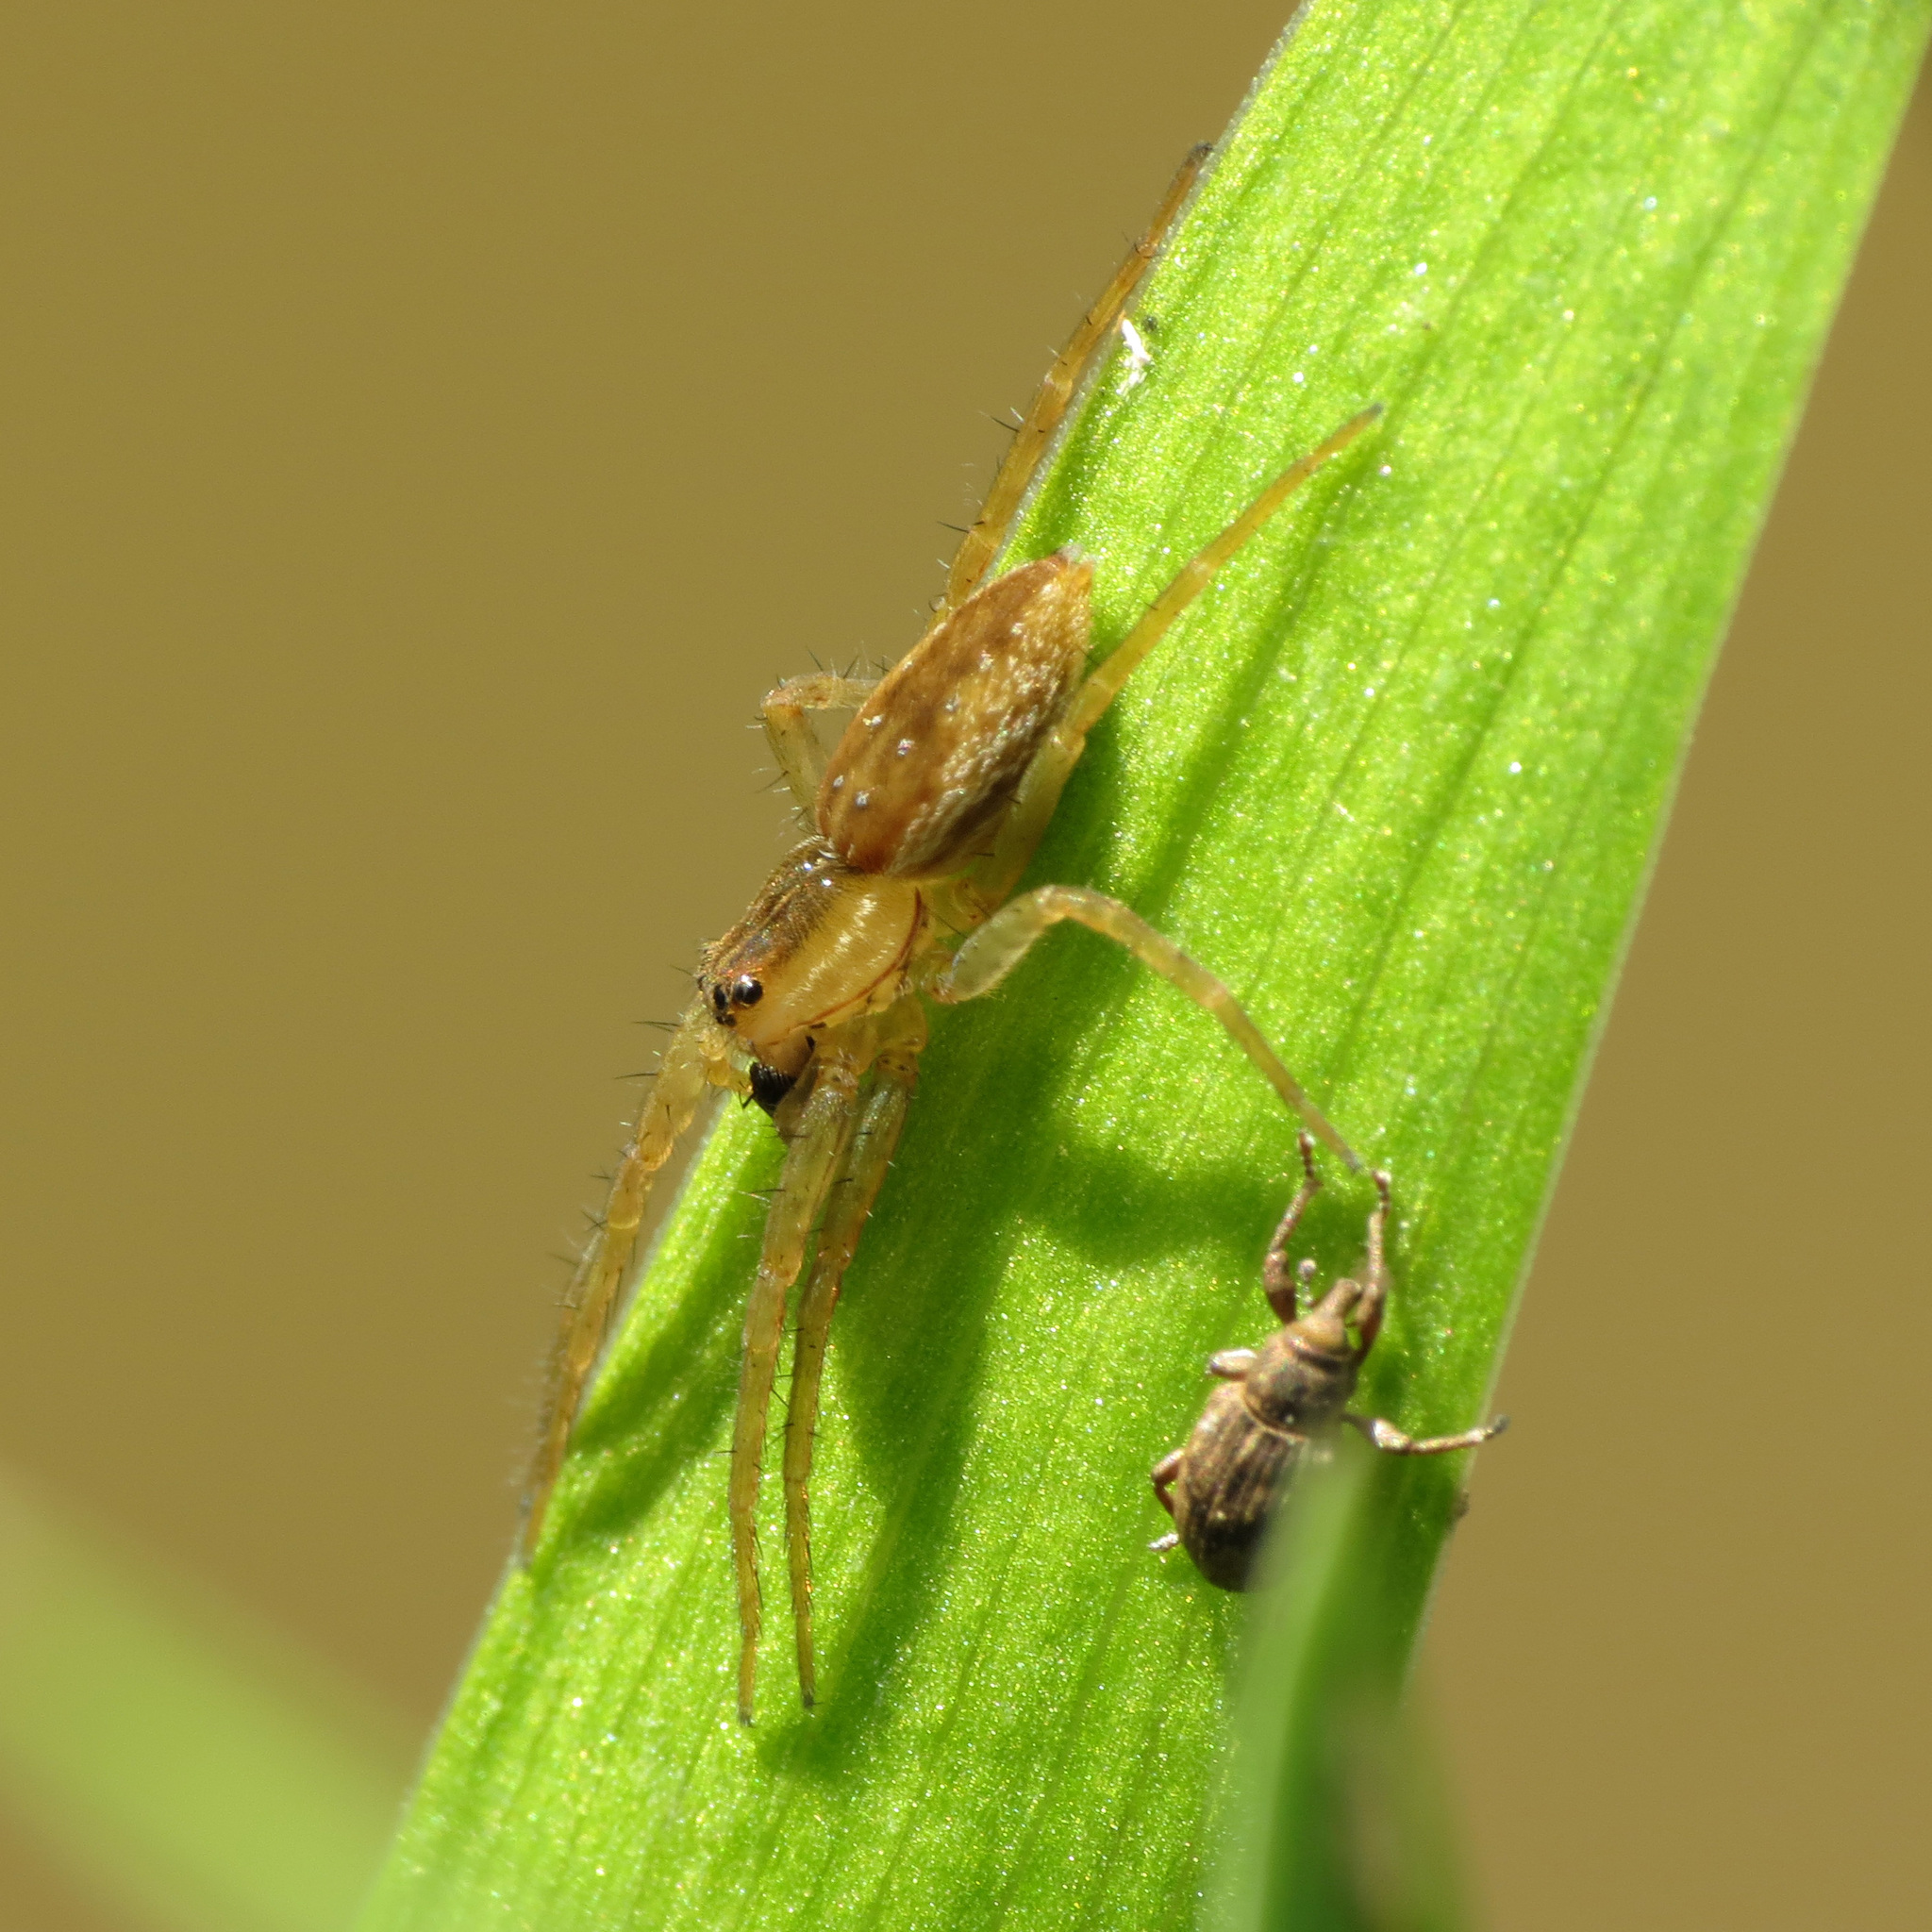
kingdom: Animalia
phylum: Arthropoda
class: Arachnida
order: Araneae
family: Pisauridae
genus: Dolomedes
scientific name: Dolomedes triton
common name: Six-spotted fishing spider
